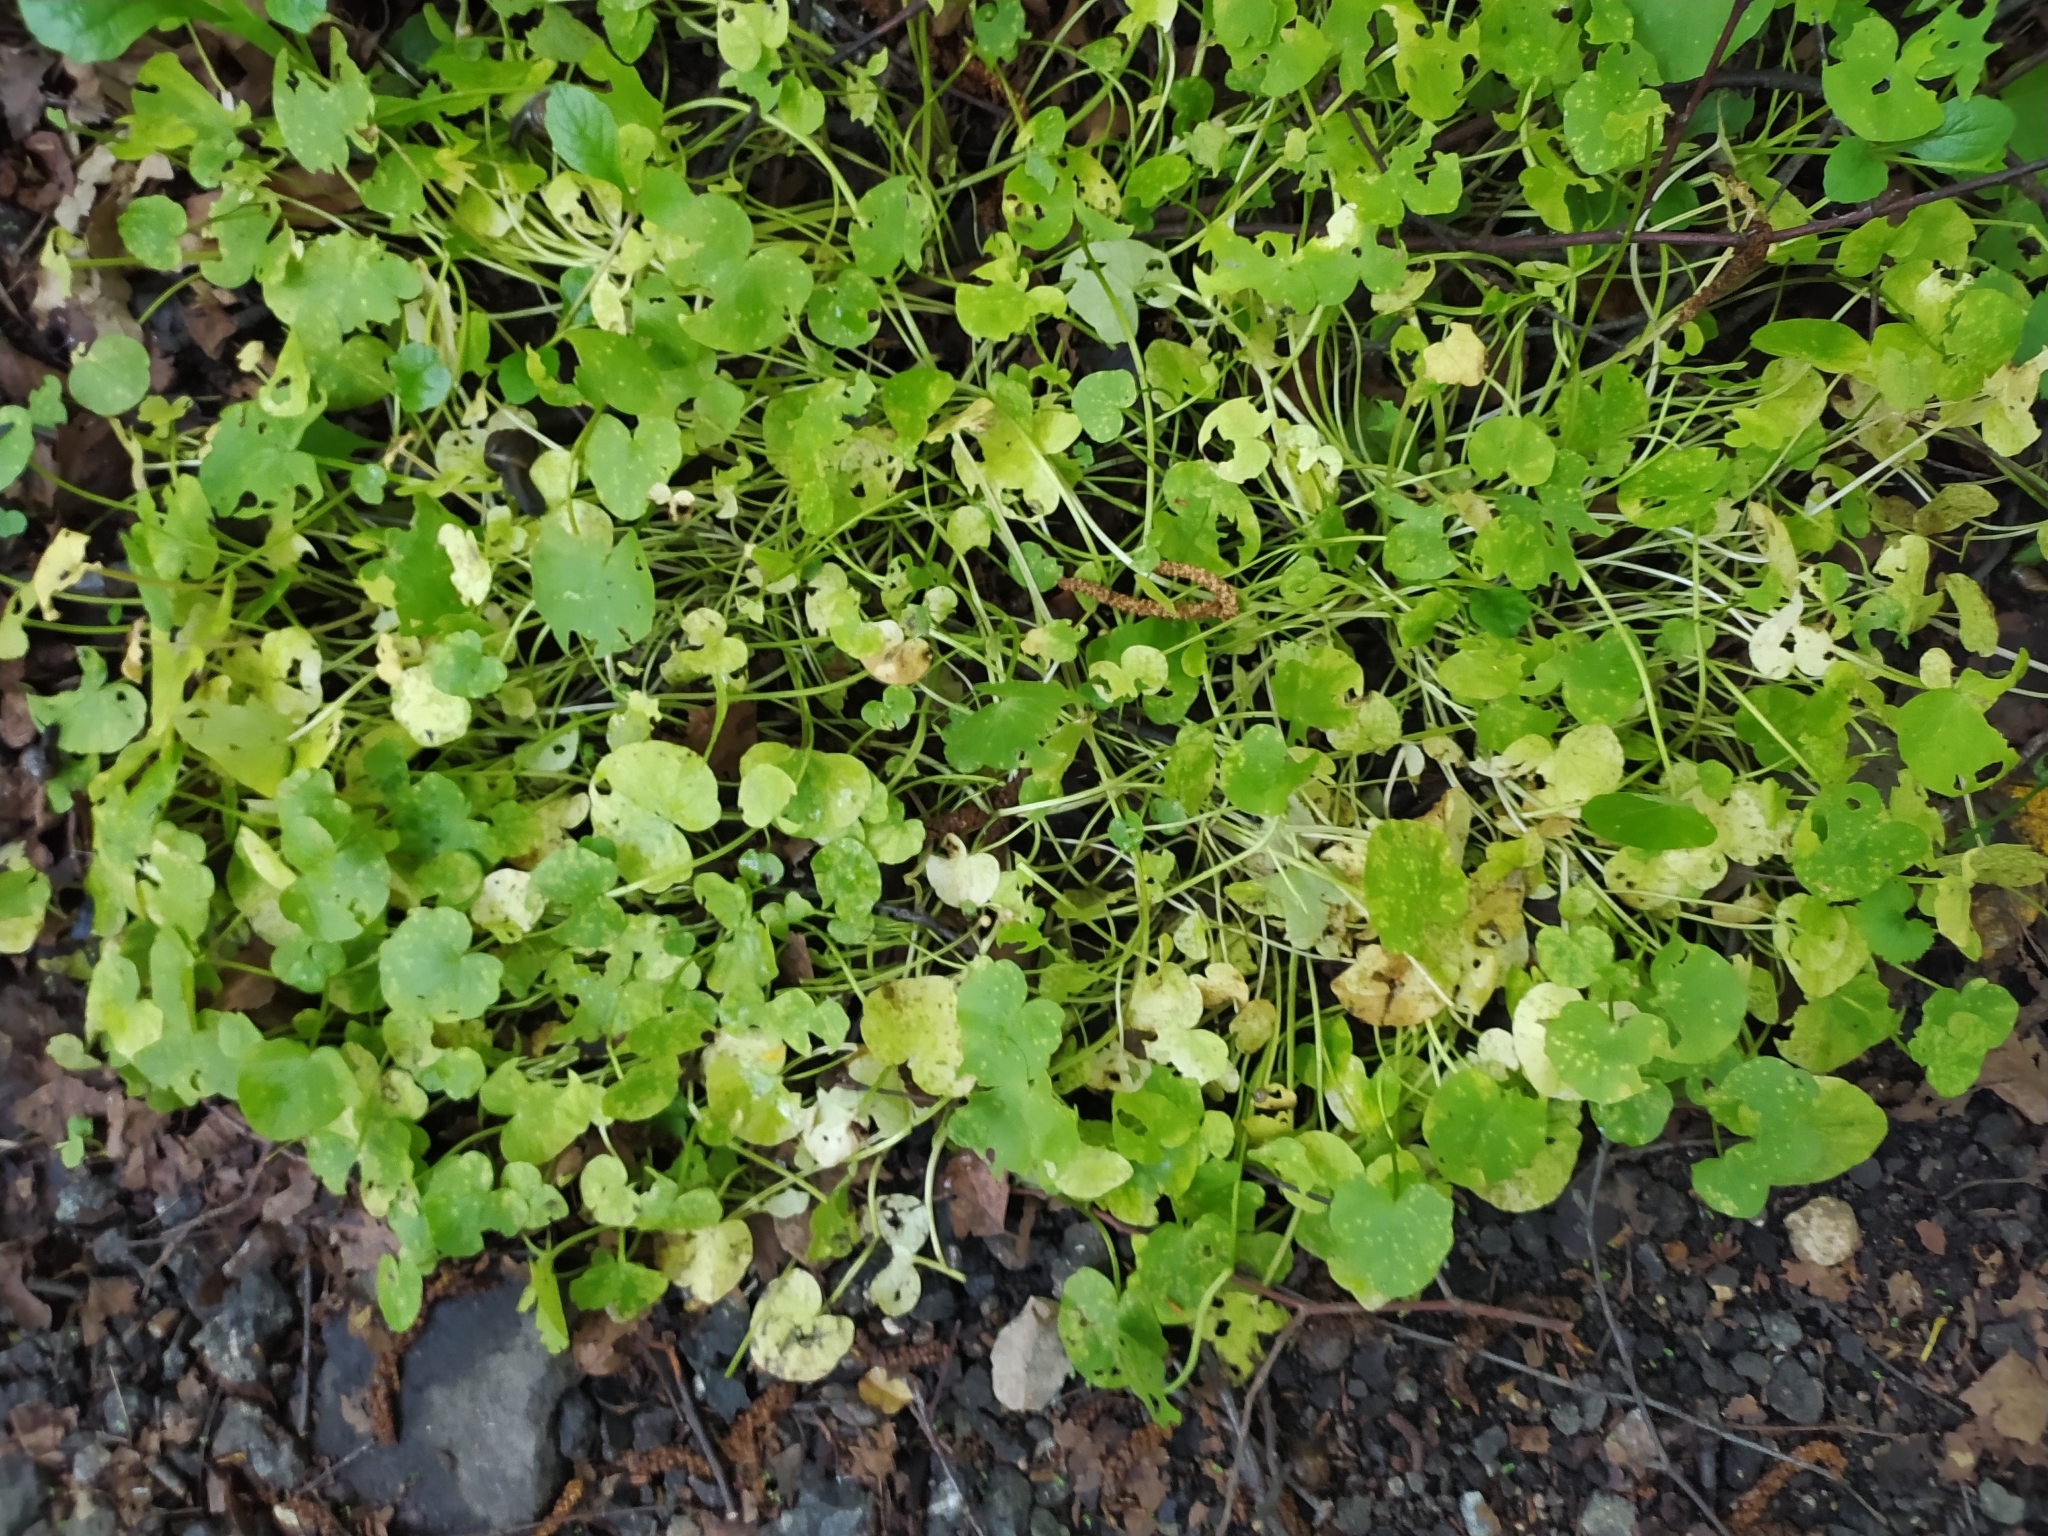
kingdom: Plantae
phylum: Tracheophyta
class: Magnoliopsida
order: Ranunculales
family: Ranunculaceae
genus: Ficaria
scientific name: Ficaria verna
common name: Lesser celandine
